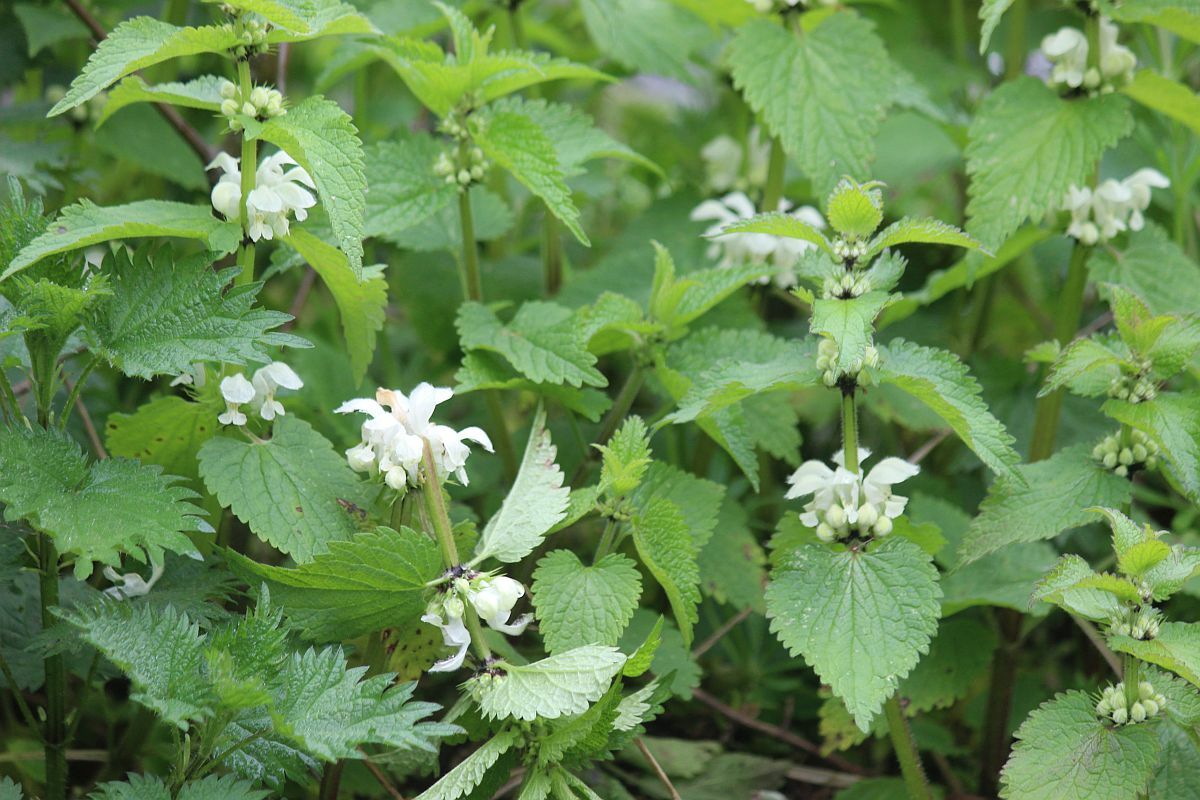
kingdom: Plantae
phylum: Tracheophyta
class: Magnoliopsida
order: Lamiales
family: Lamiaceae
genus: Lamium
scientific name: Lamium album
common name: White dead-nettle
